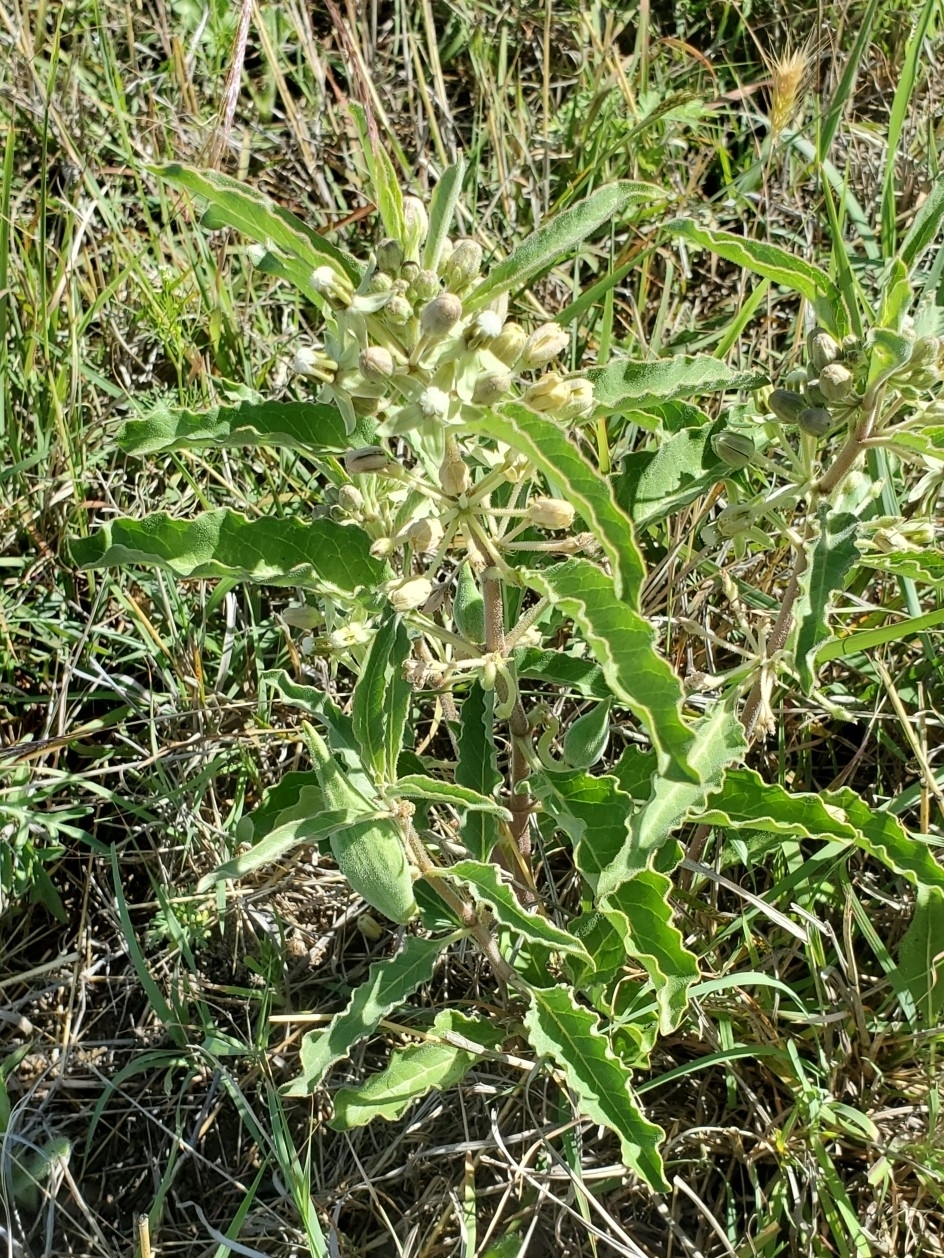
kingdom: Plantae
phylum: Tracheophyta
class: Magnoliopsida
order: Gentianales
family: Apocynaceae
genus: Asclepias
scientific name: Asclepias emoryi
